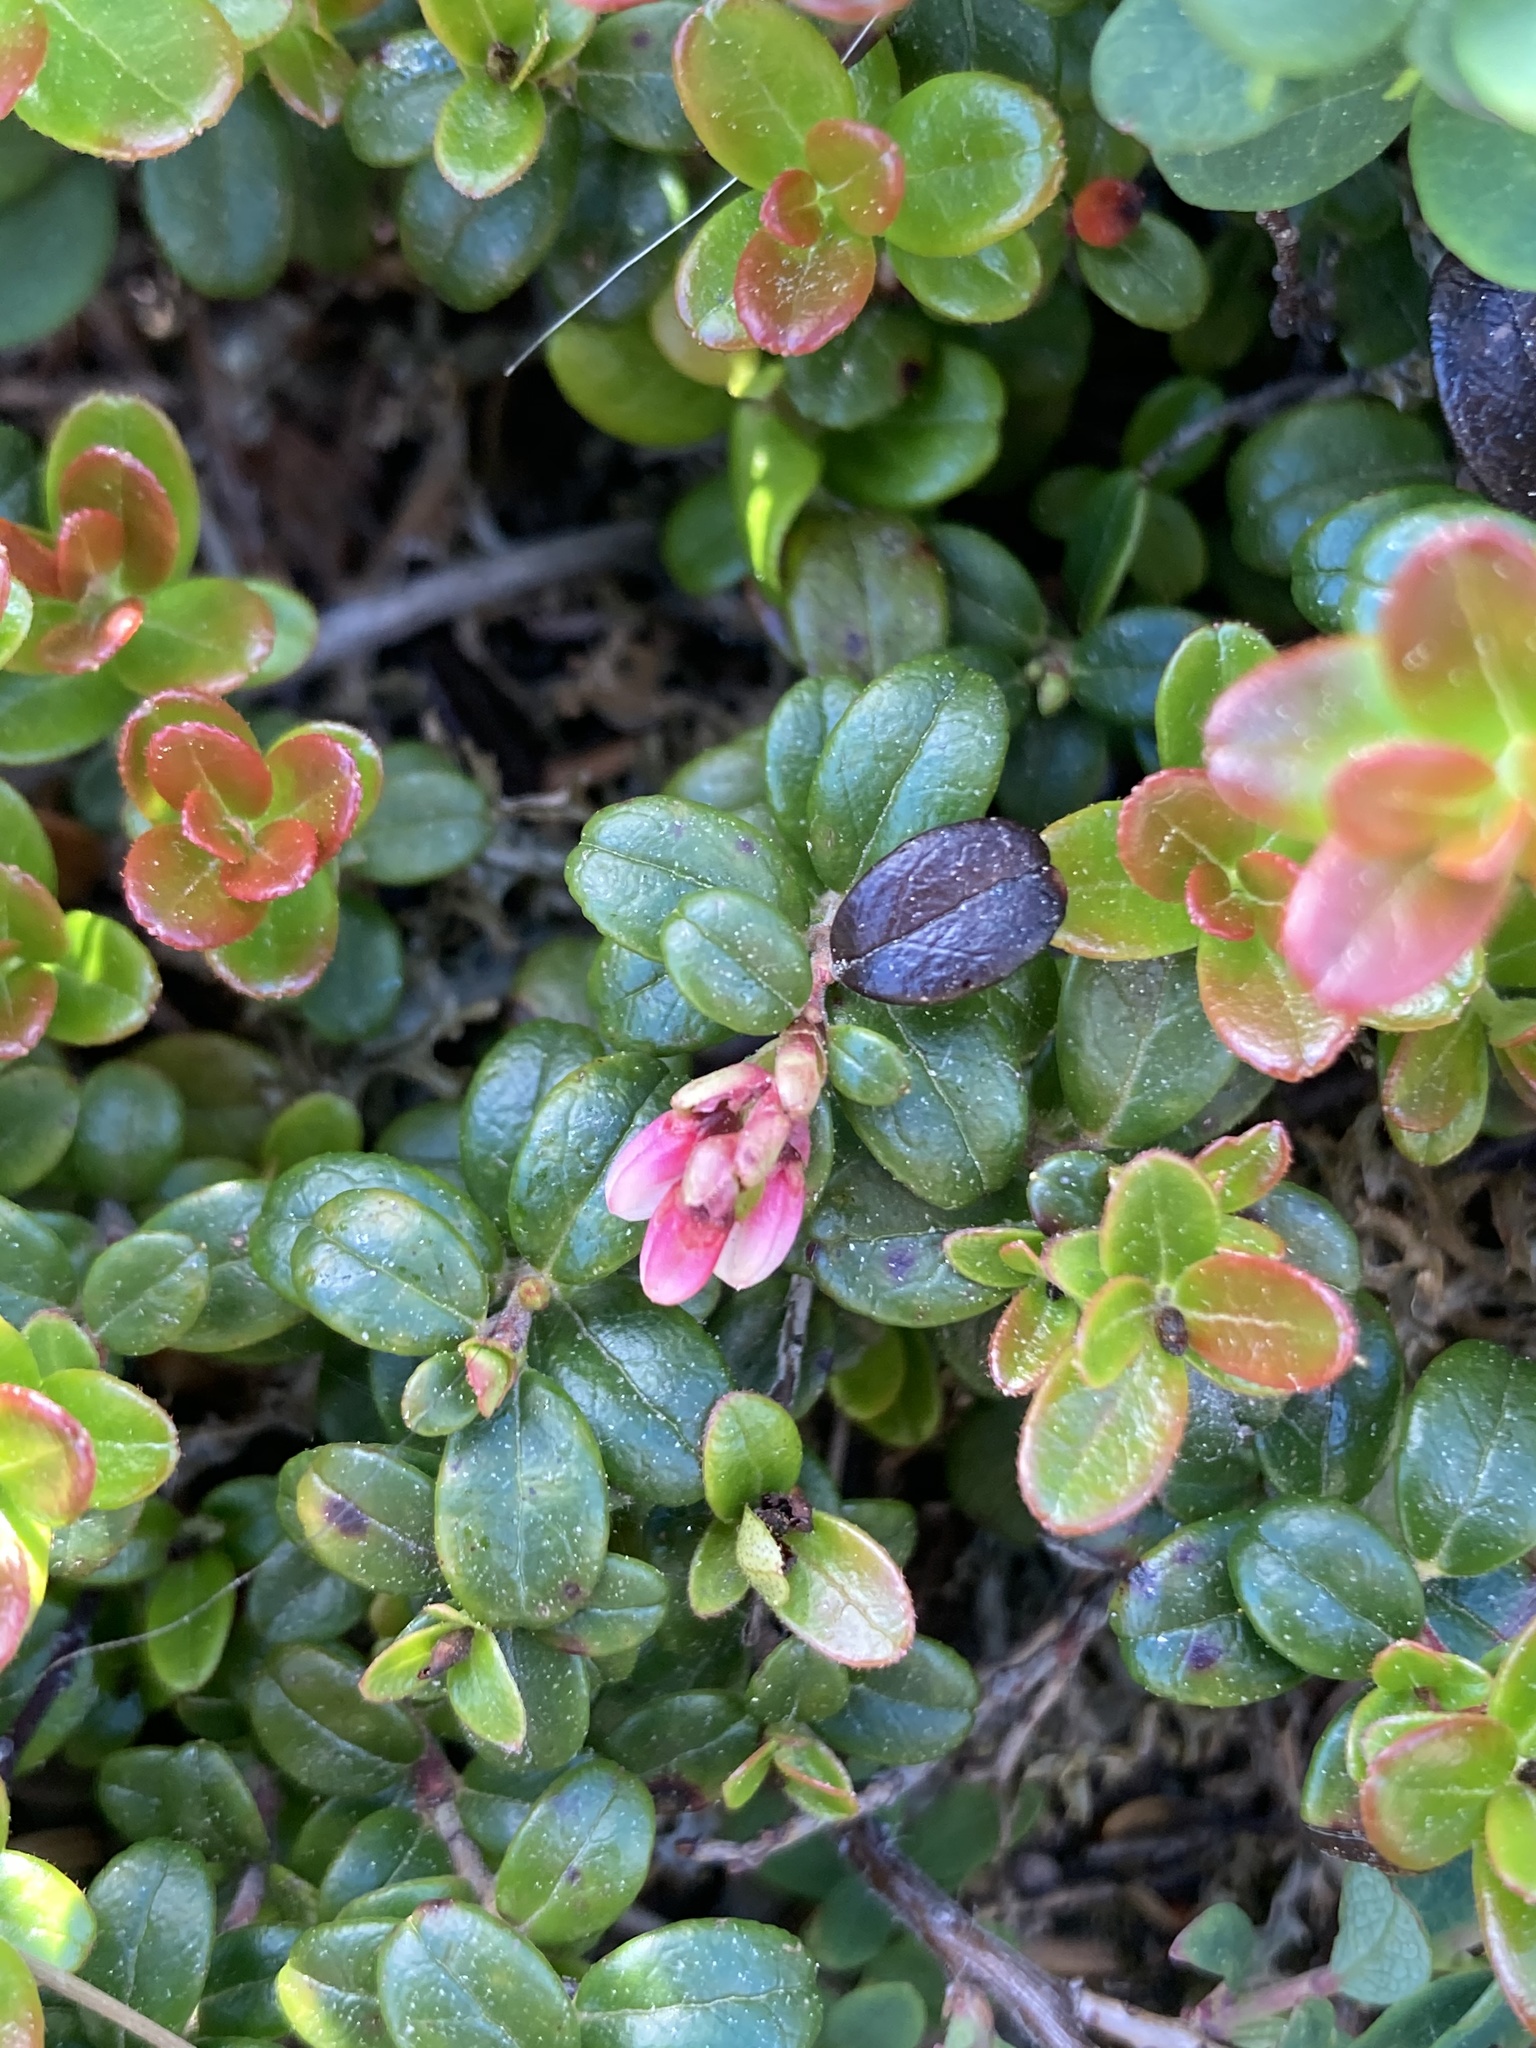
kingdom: Plantae
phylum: Tracheophyta
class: Magnoliopsida
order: Ericales
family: Ericaceae
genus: Vaccinium
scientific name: Vaccinium vitis-idaea
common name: Cowberry
